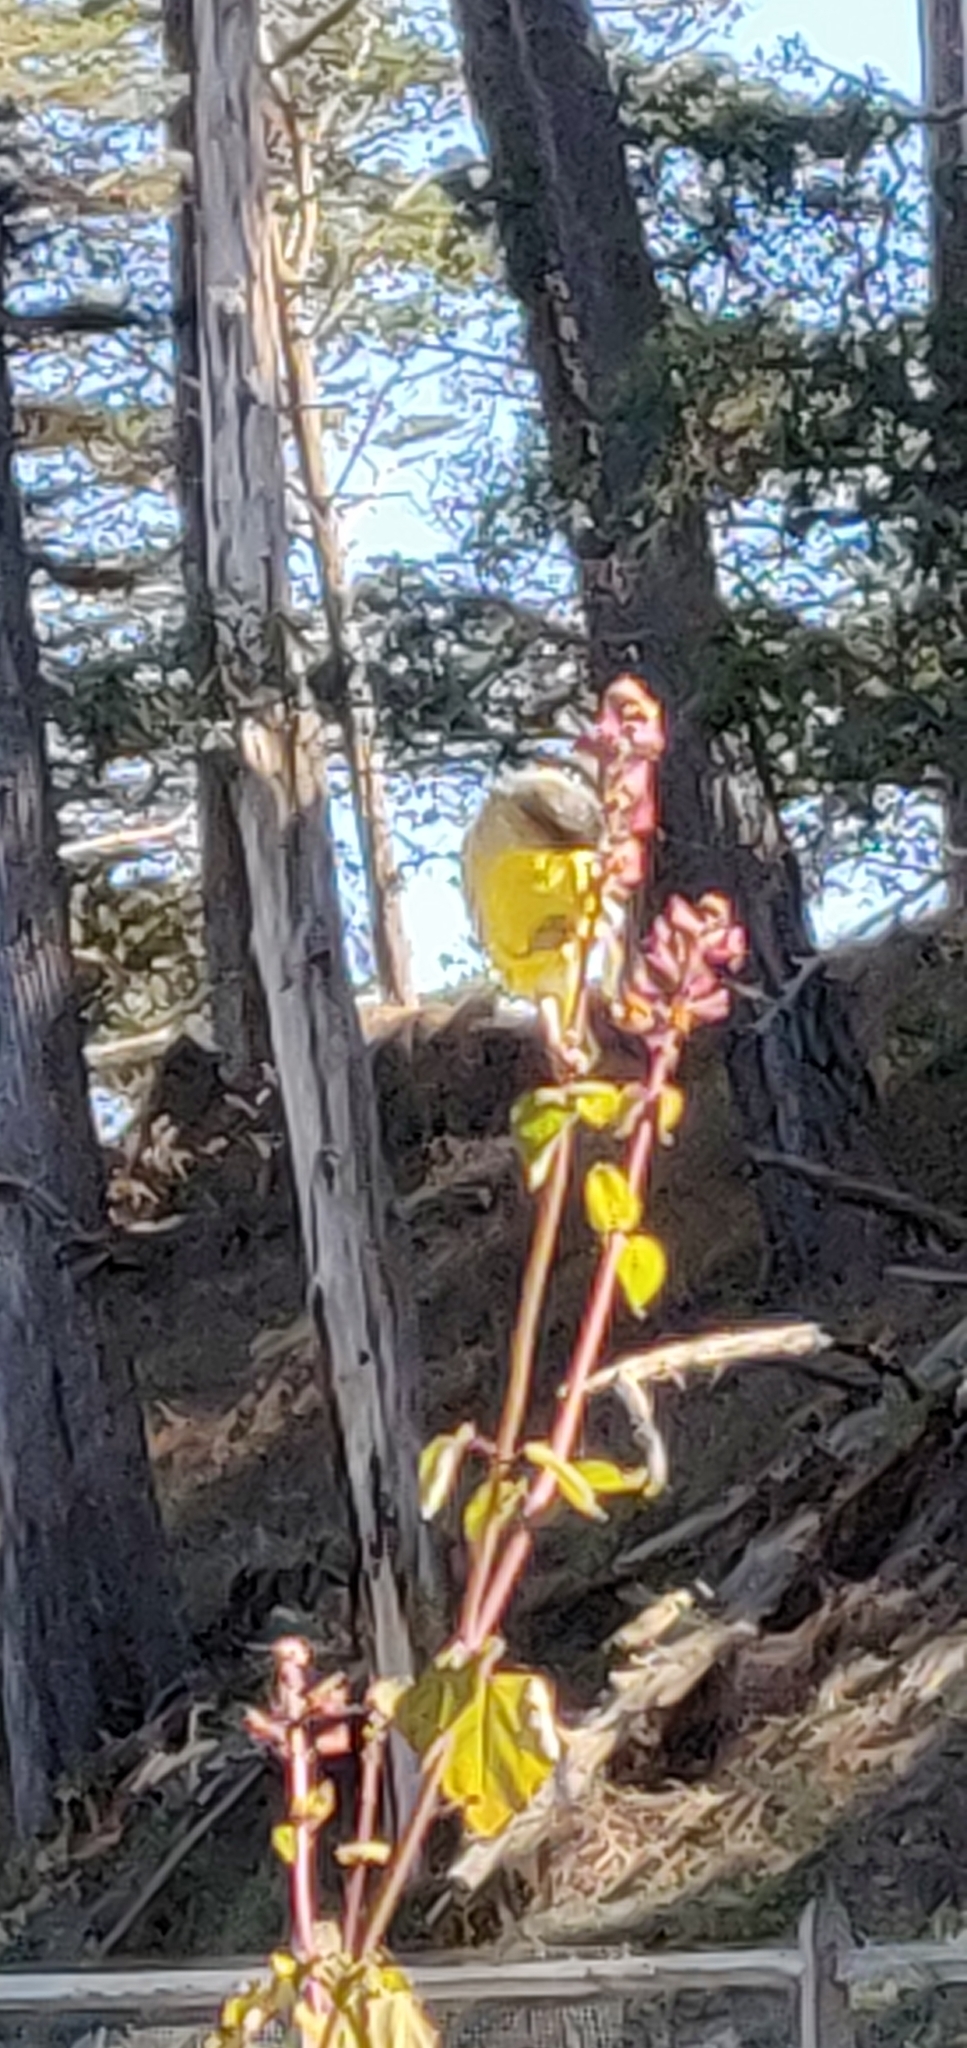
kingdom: Animalia
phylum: Chordata
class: Aves
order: Passeriformes
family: Fringillidae
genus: Spinus
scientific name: Spinus psaltria
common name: Lesser goldfinch
